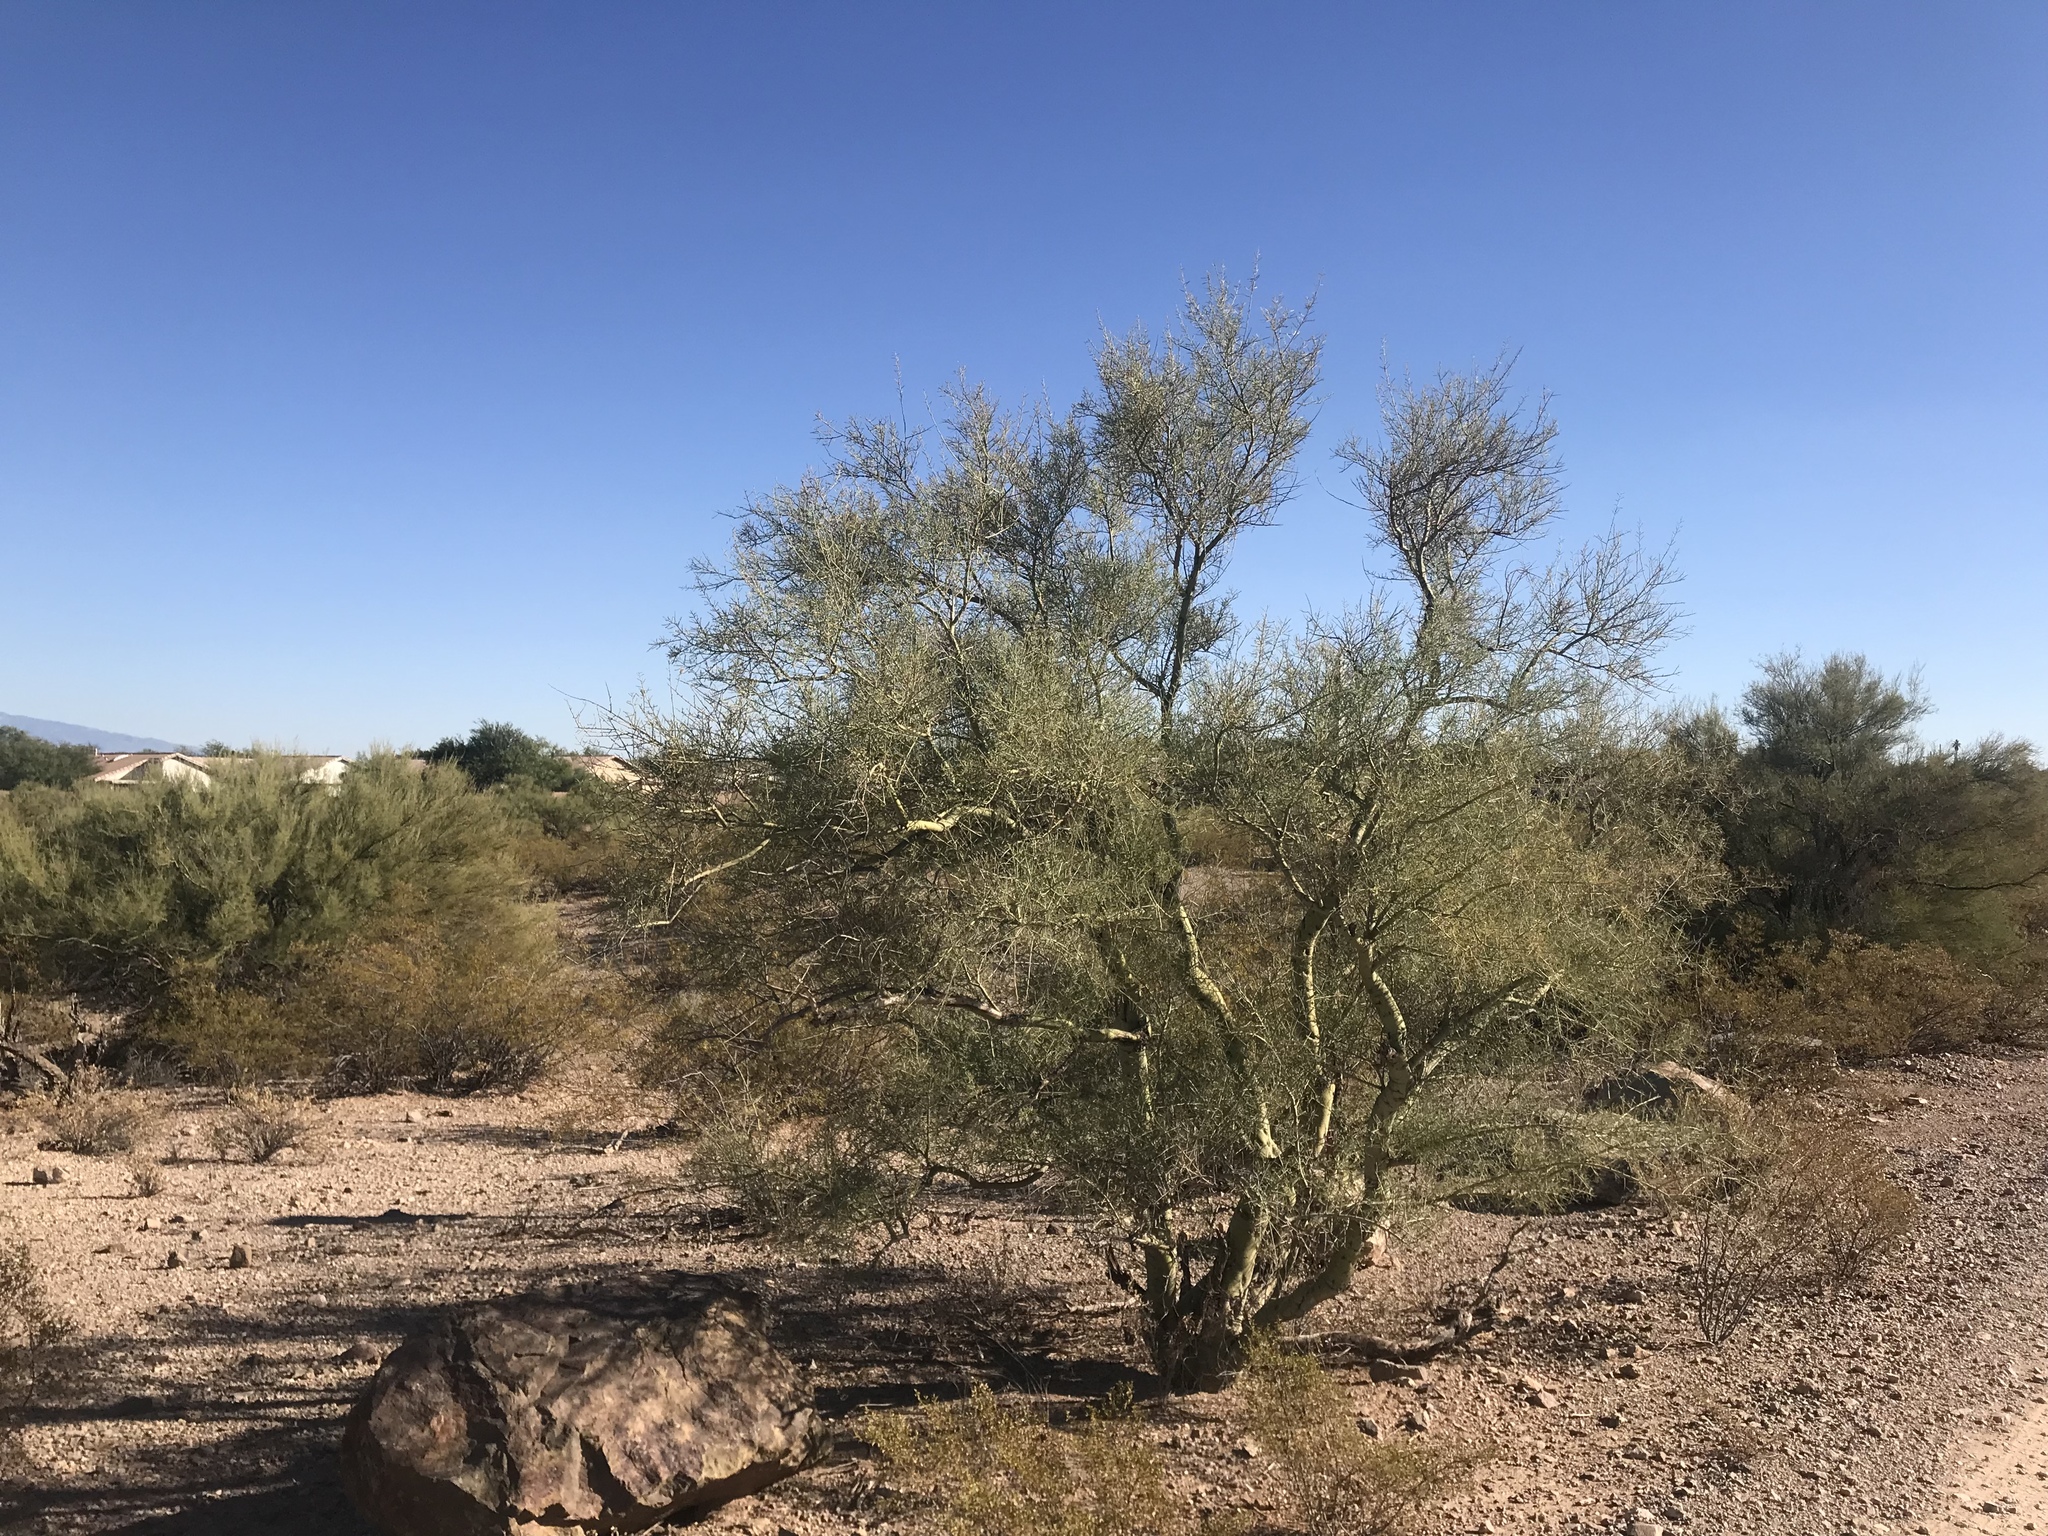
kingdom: Plantae
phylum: Tracheophyta
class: Magnoliopsida
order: Fabales
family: Fabaceae
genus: Parkinsonia
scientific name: Parkinsonia microphylla
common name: Yellow paloverde
